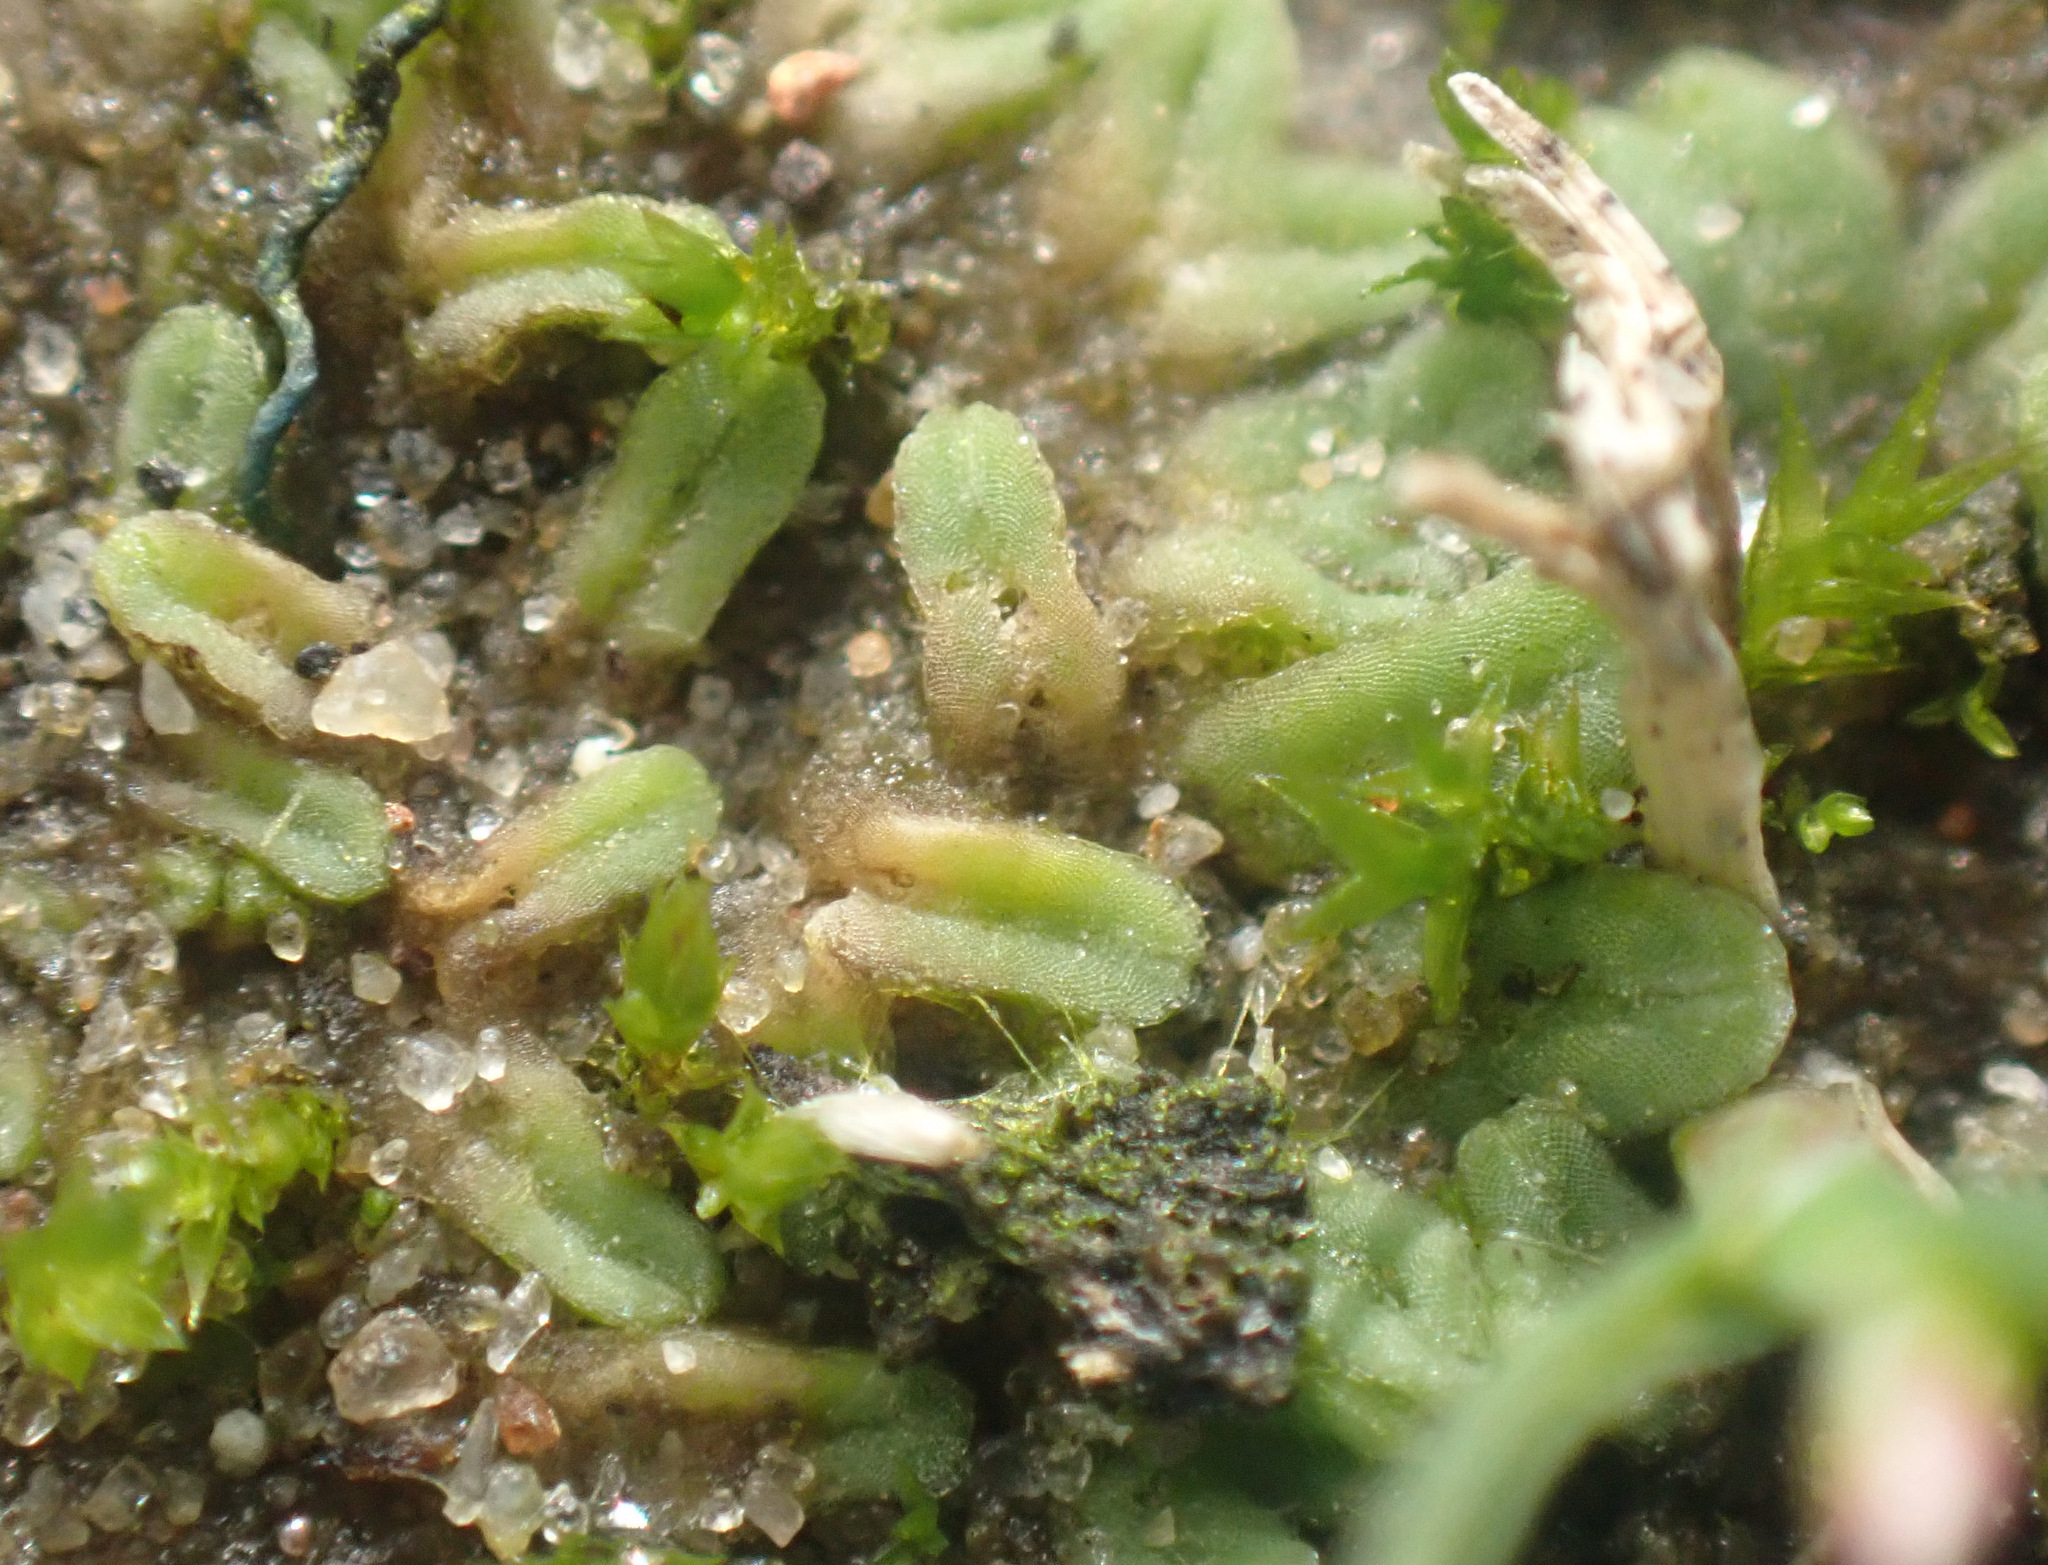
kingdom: Plantae
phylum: Marchantiophyta
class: Marchantiopsida
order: Marchantiales
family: Ricciaceae
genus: Riccia
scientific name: Riccia sorocarpa
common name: Common crystalwort
